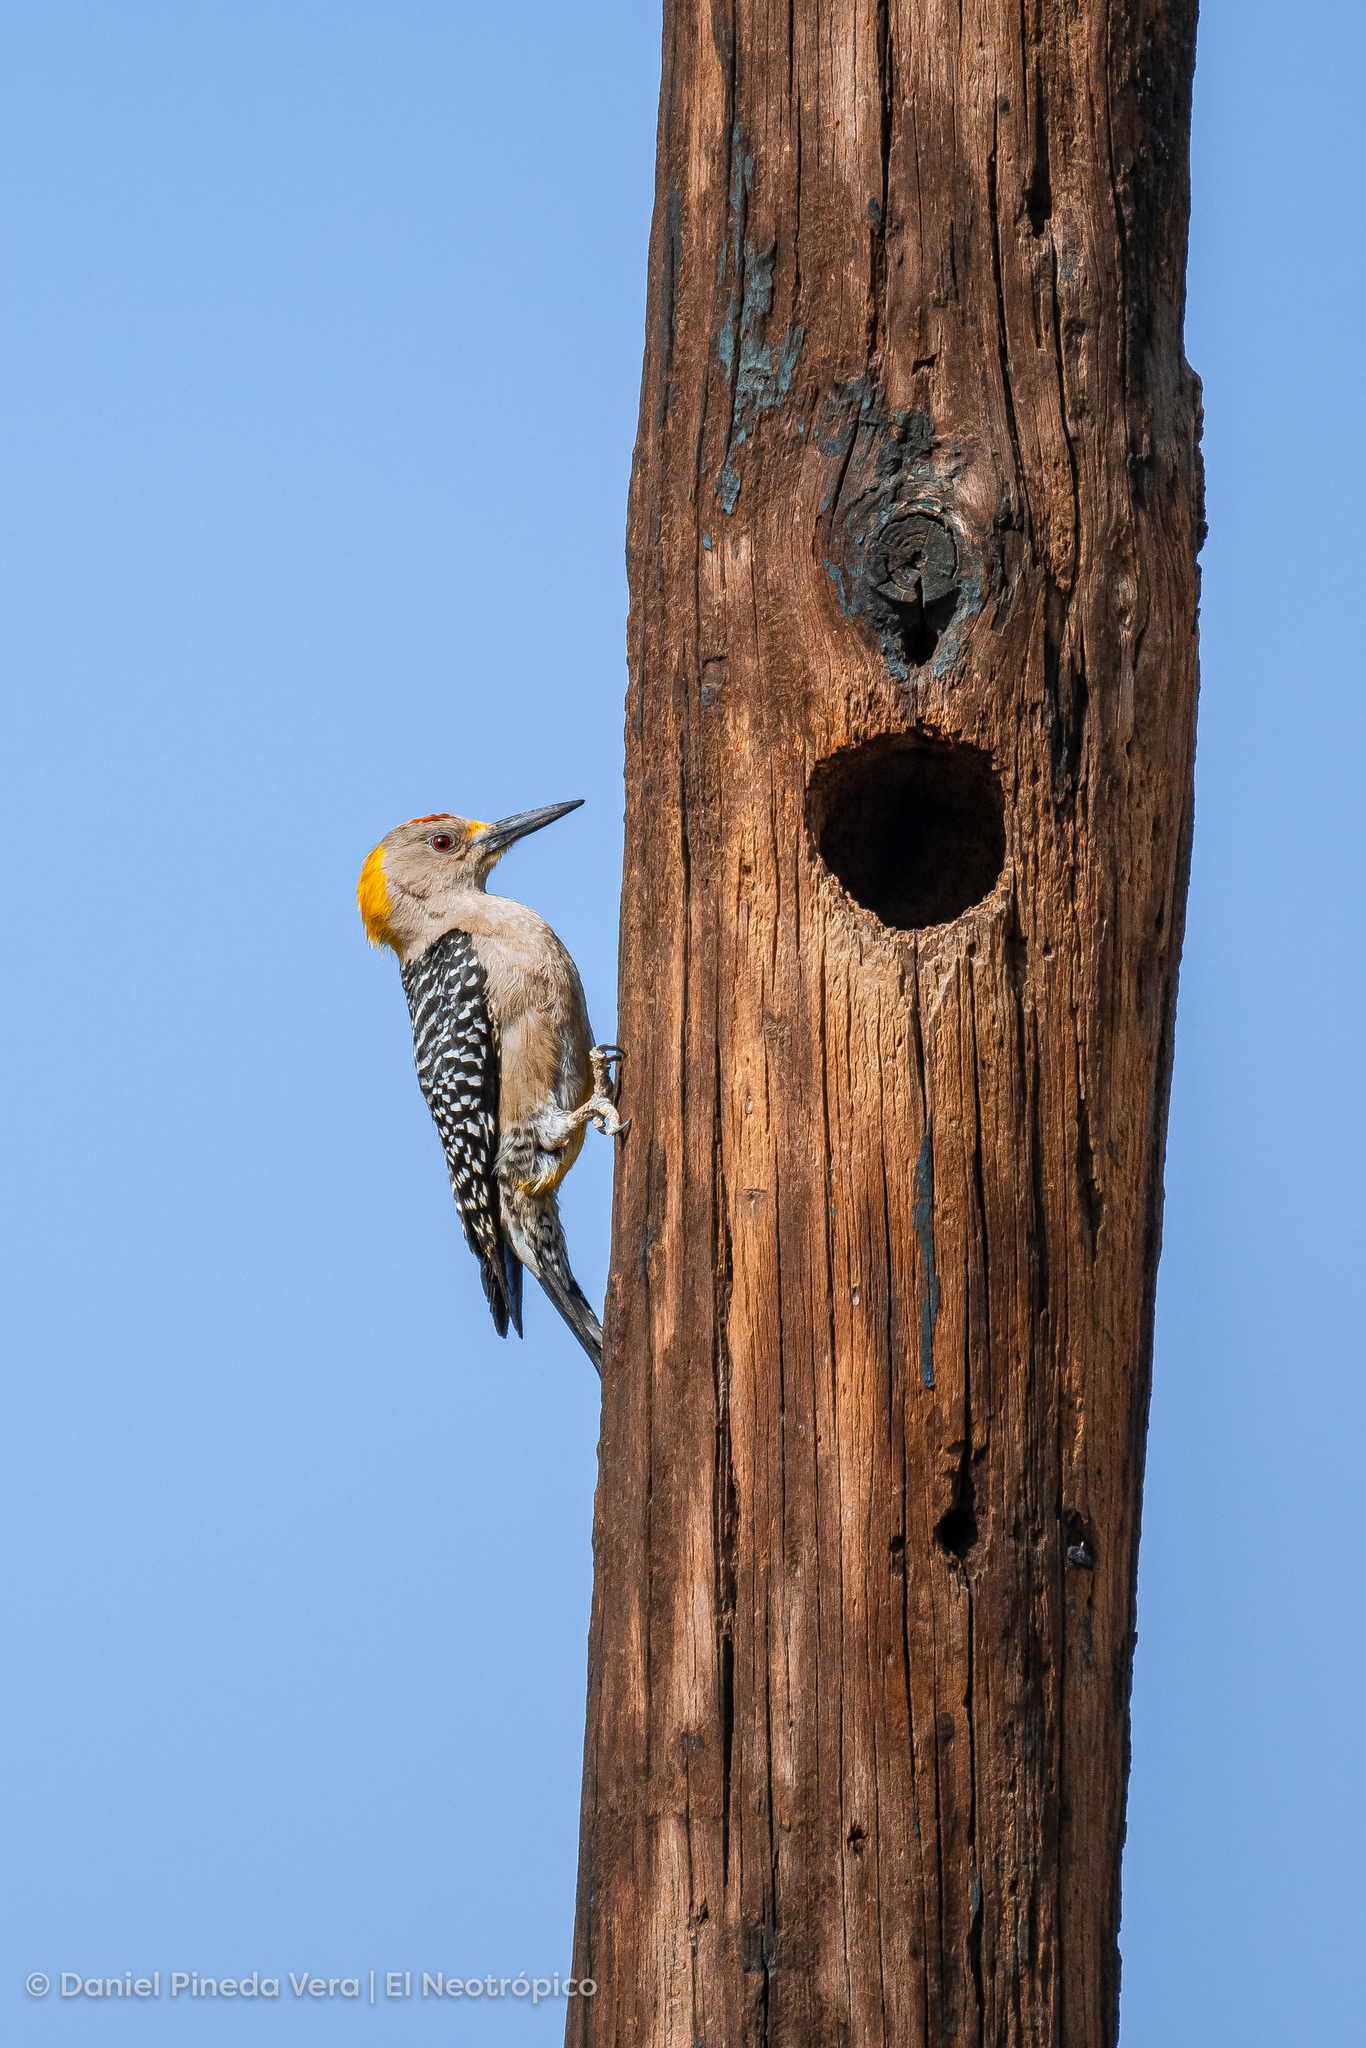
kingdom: Animalia
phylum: Chordata
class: Aves
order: Piciformes
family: Picidae
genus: Melanerpes
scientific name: Melanerpes aurifrons
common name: Golden-fronted woodpecker
